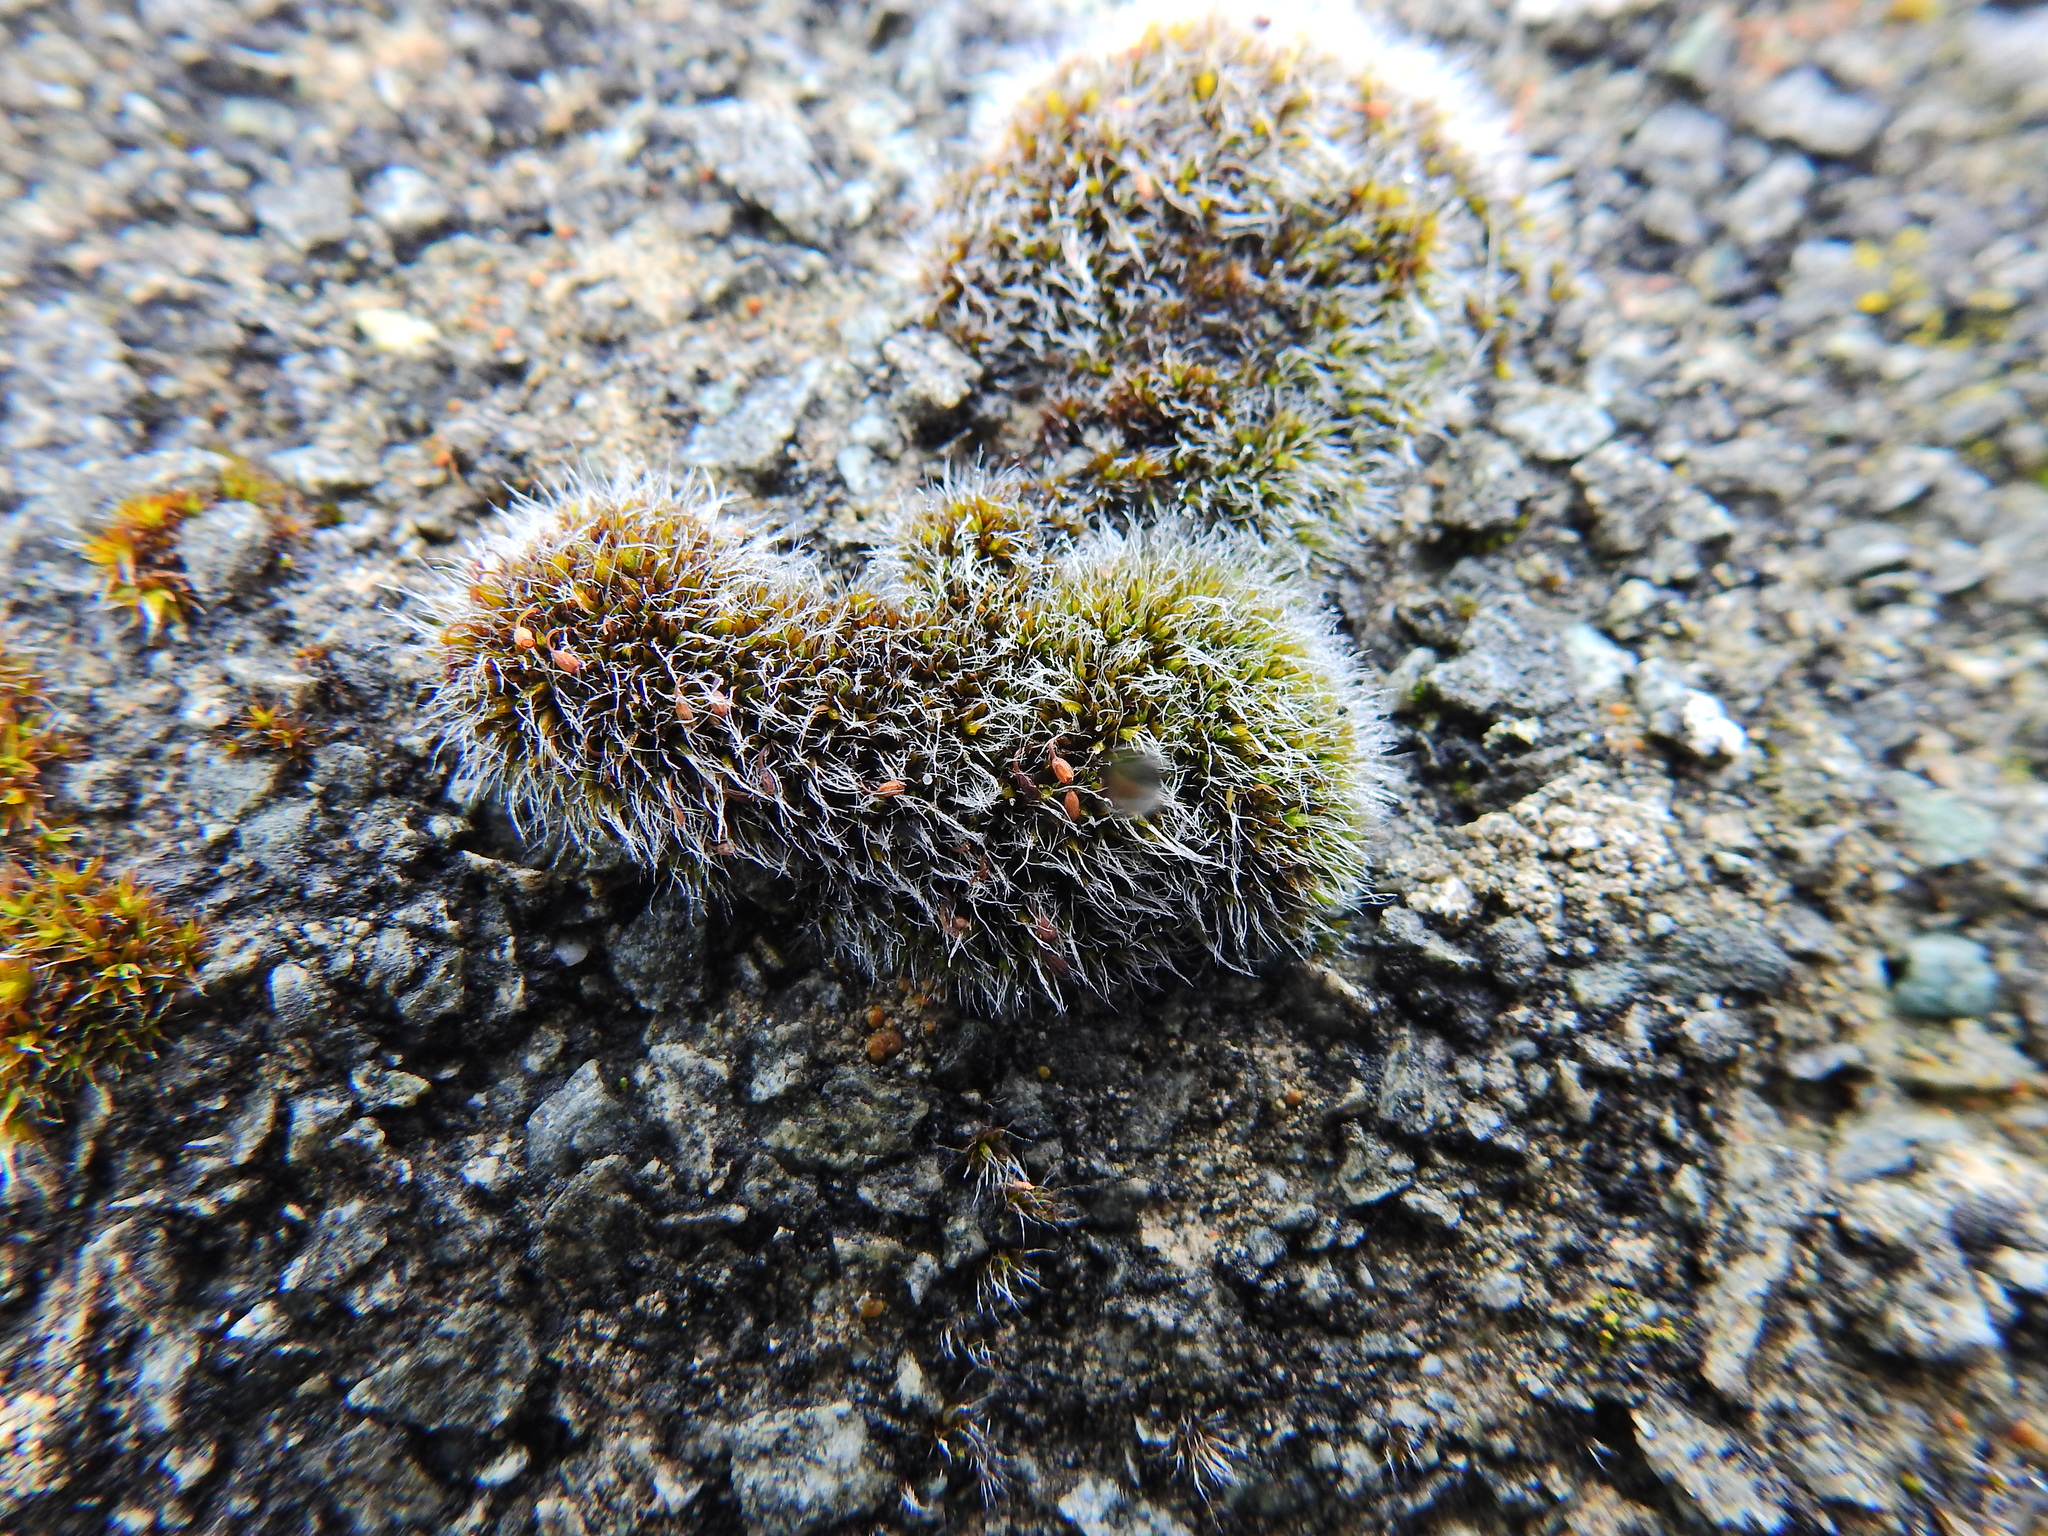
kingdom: Plantae
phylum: Bryophyta
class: Bryopsida
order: Grimmiales
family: Grimmiaceae
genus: Grimmia
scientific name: Grimmia pulvinata
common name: Grey-cushioned grimmia
